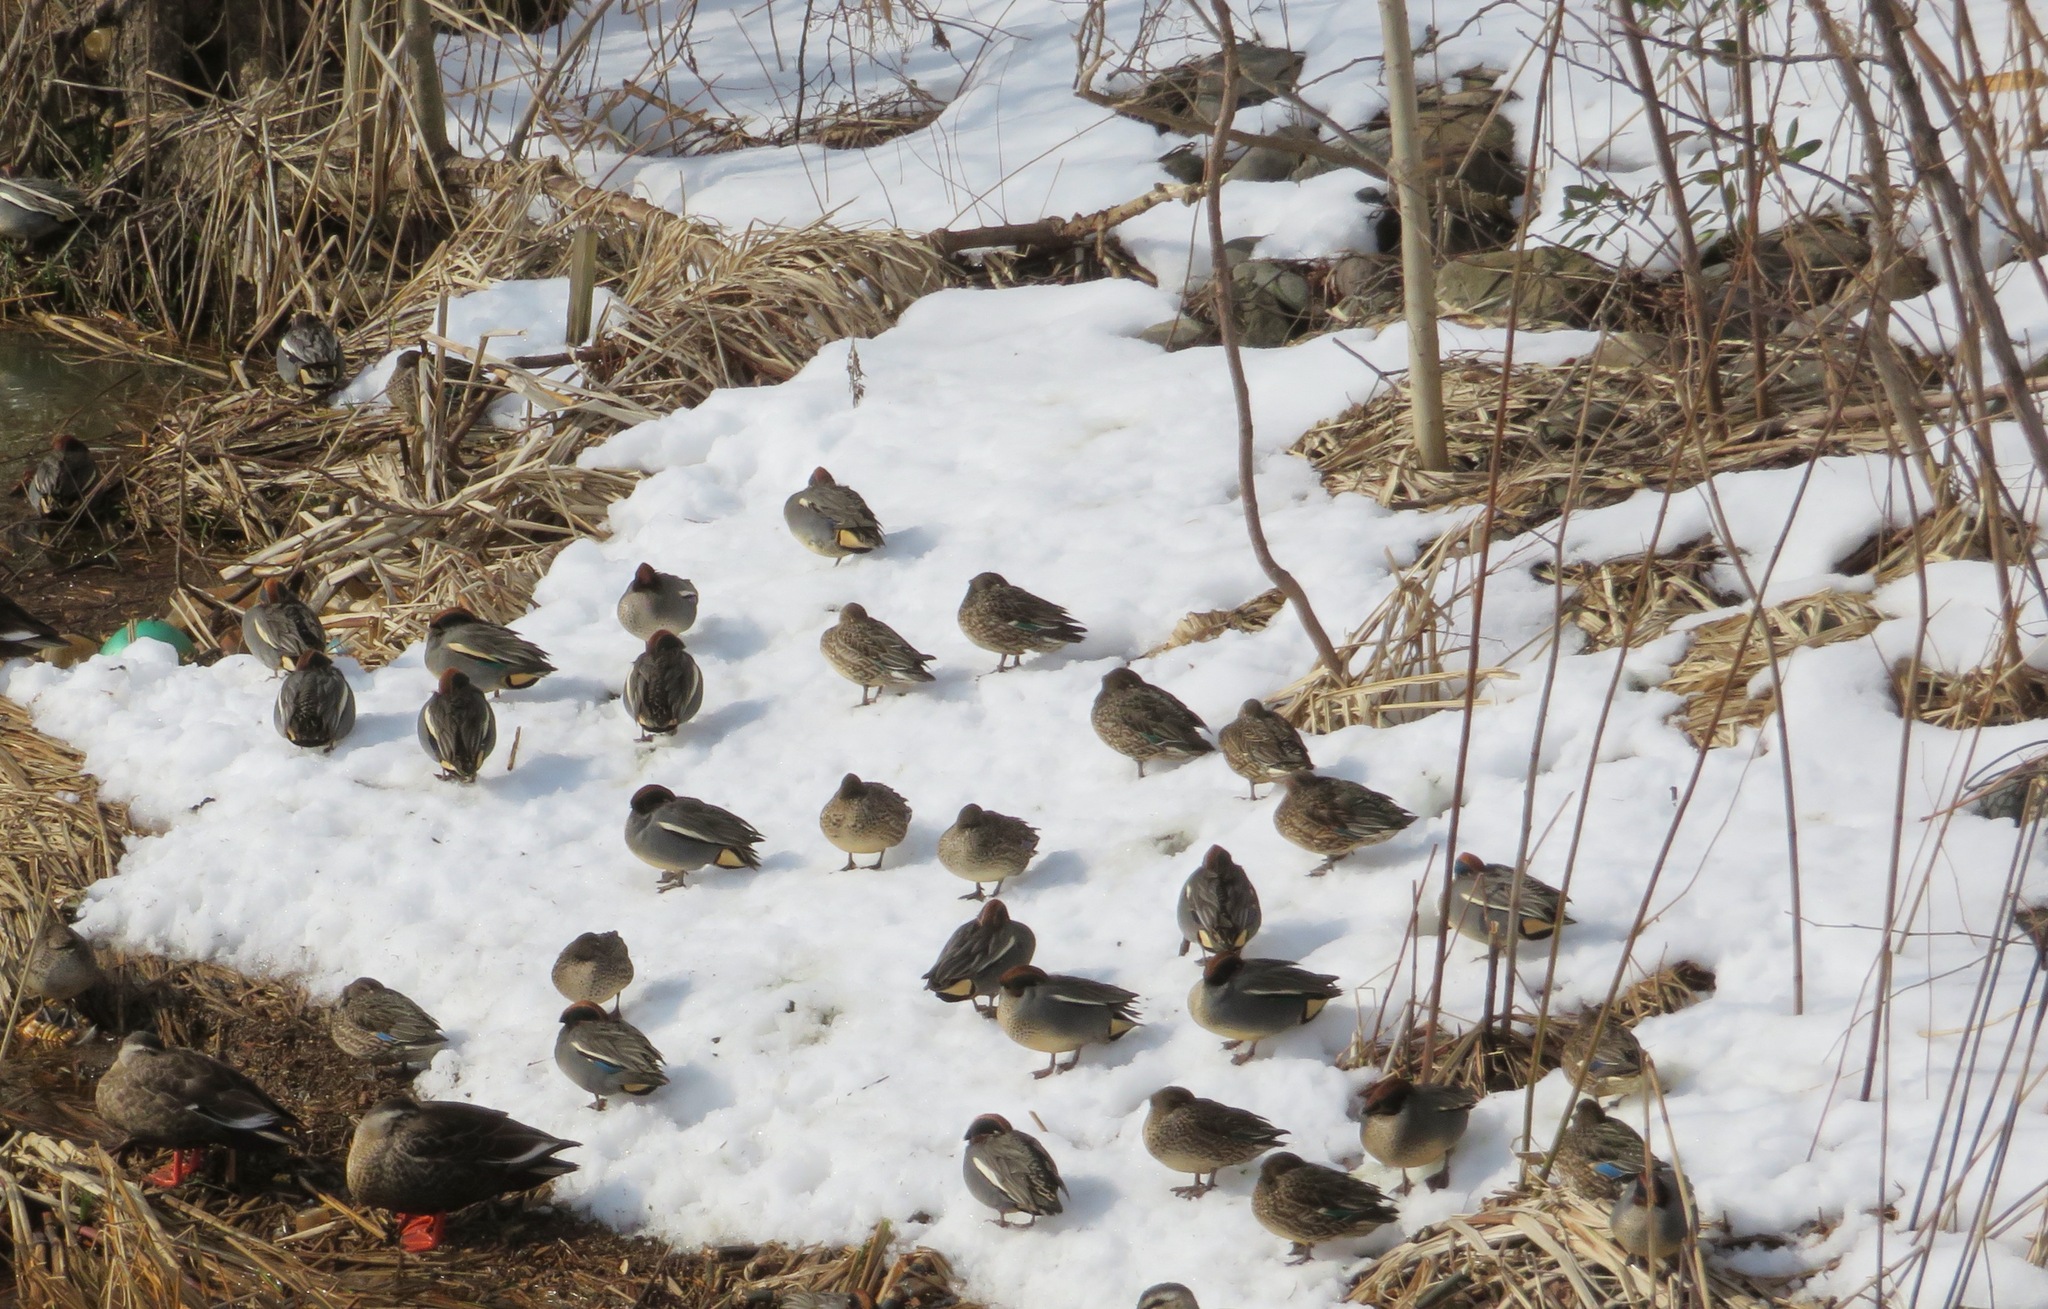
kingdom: Animalia
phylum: Chordata
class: Aves
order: Anseriformes
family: Anatidae
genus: Anas
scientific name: Anas crecca
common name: Eurasian teal
